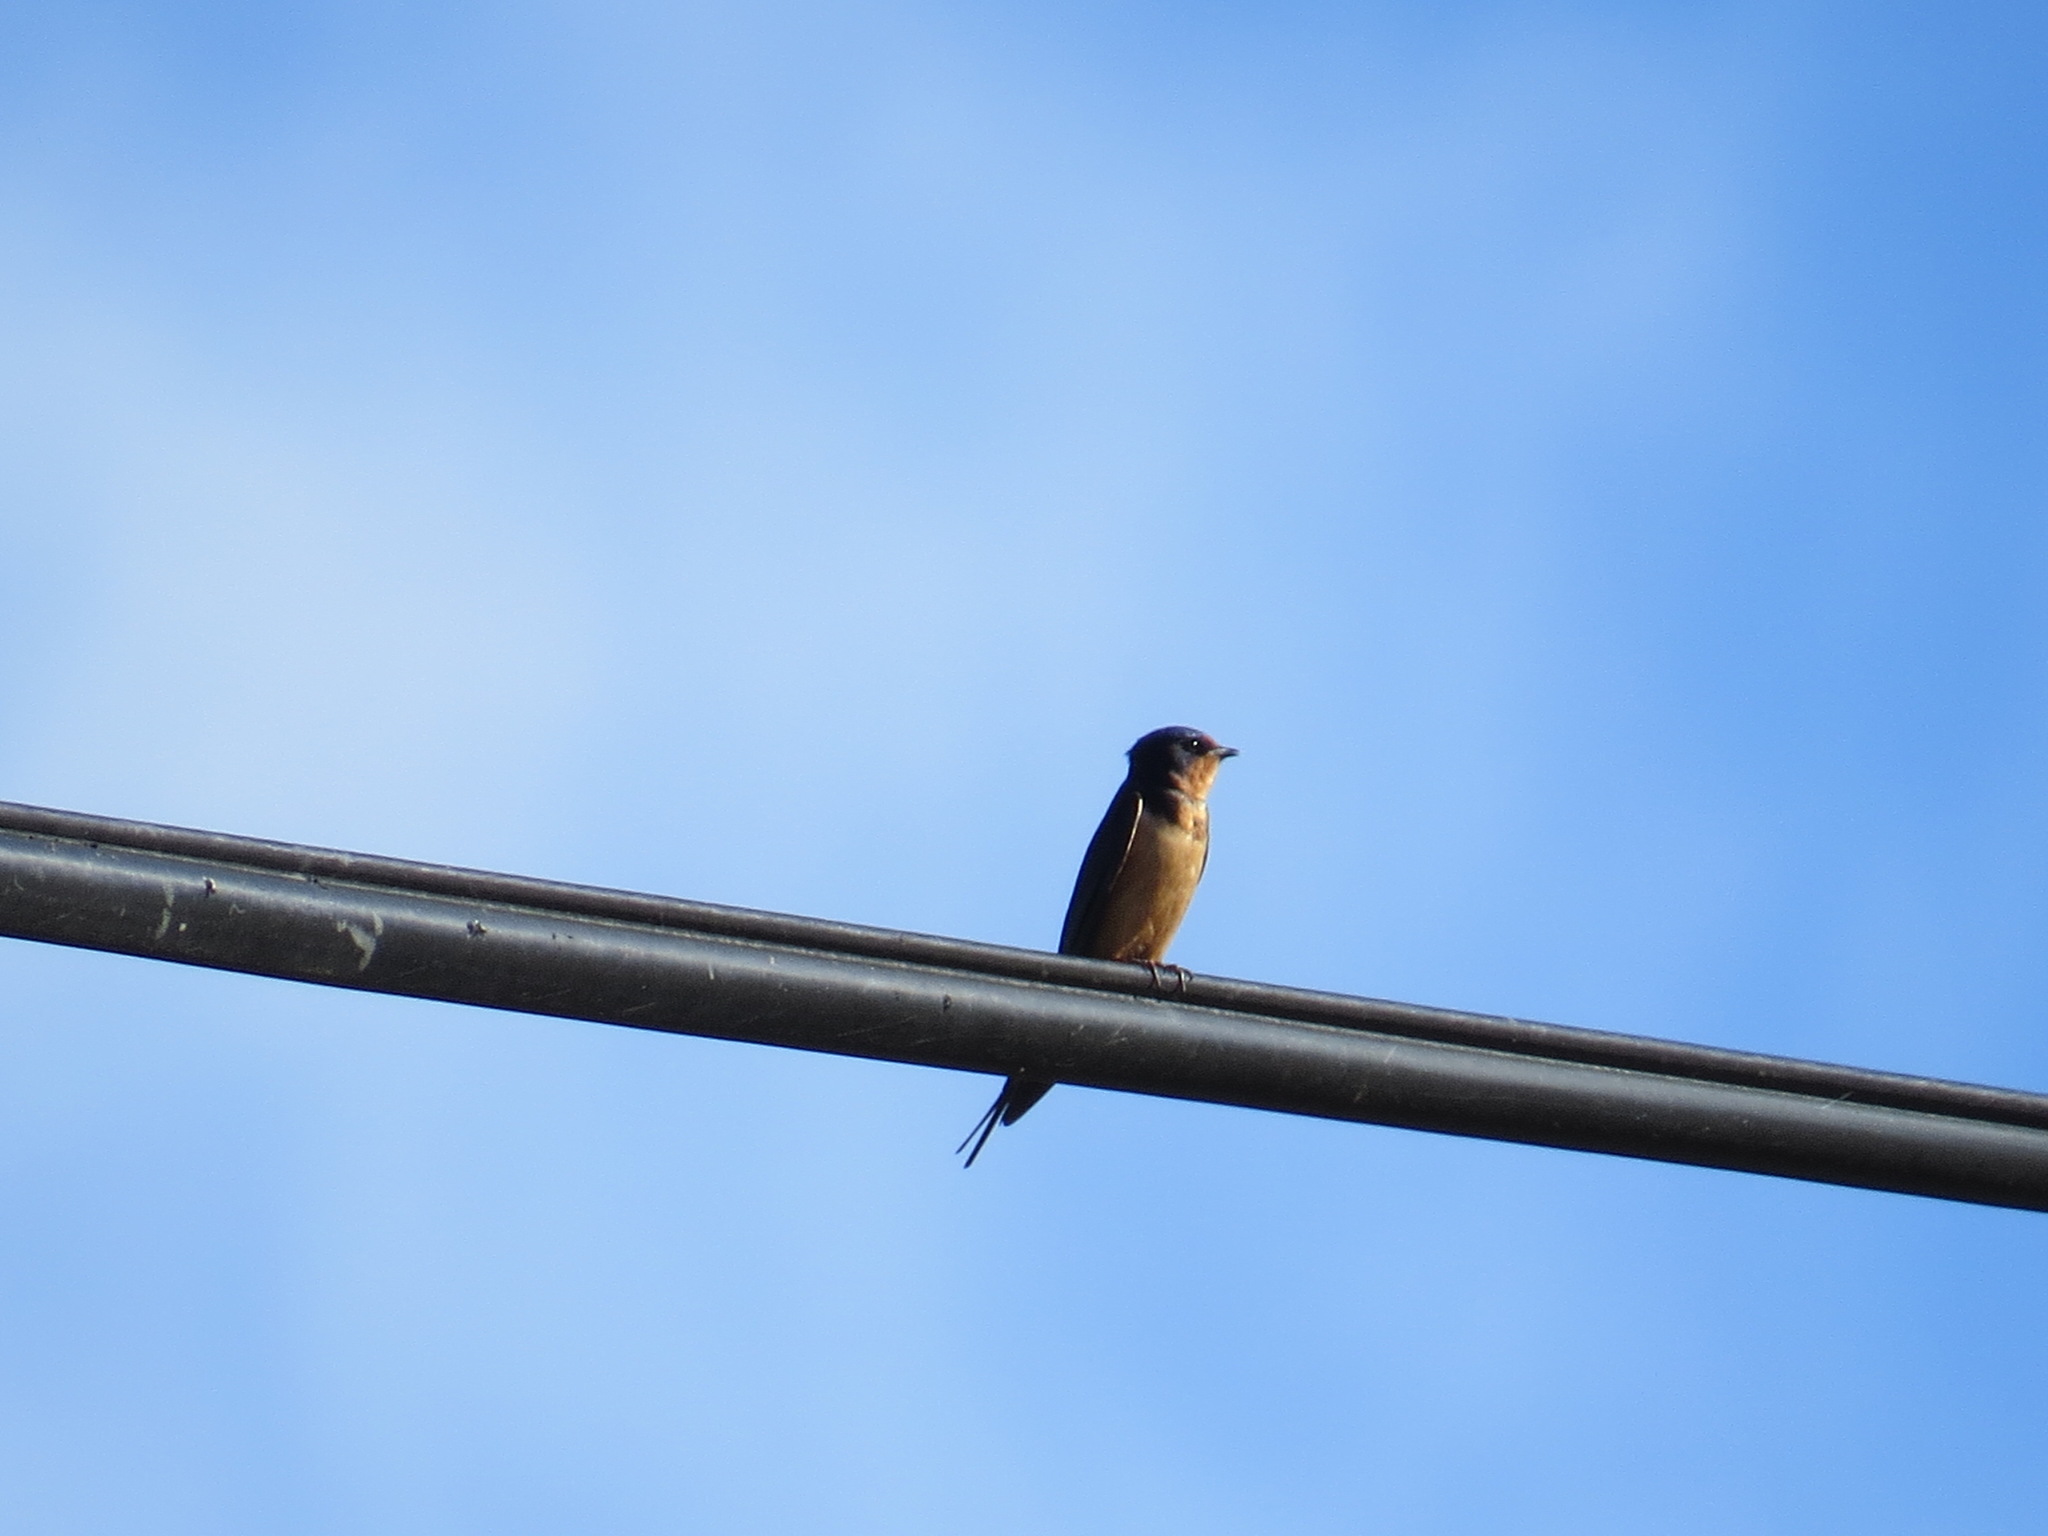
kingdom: Animalia
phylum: Chordata
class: Aves
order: Passeriformes
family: Hirundinidae
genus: Hirundo
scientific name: Hirundo rustica
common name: Barn swallow
